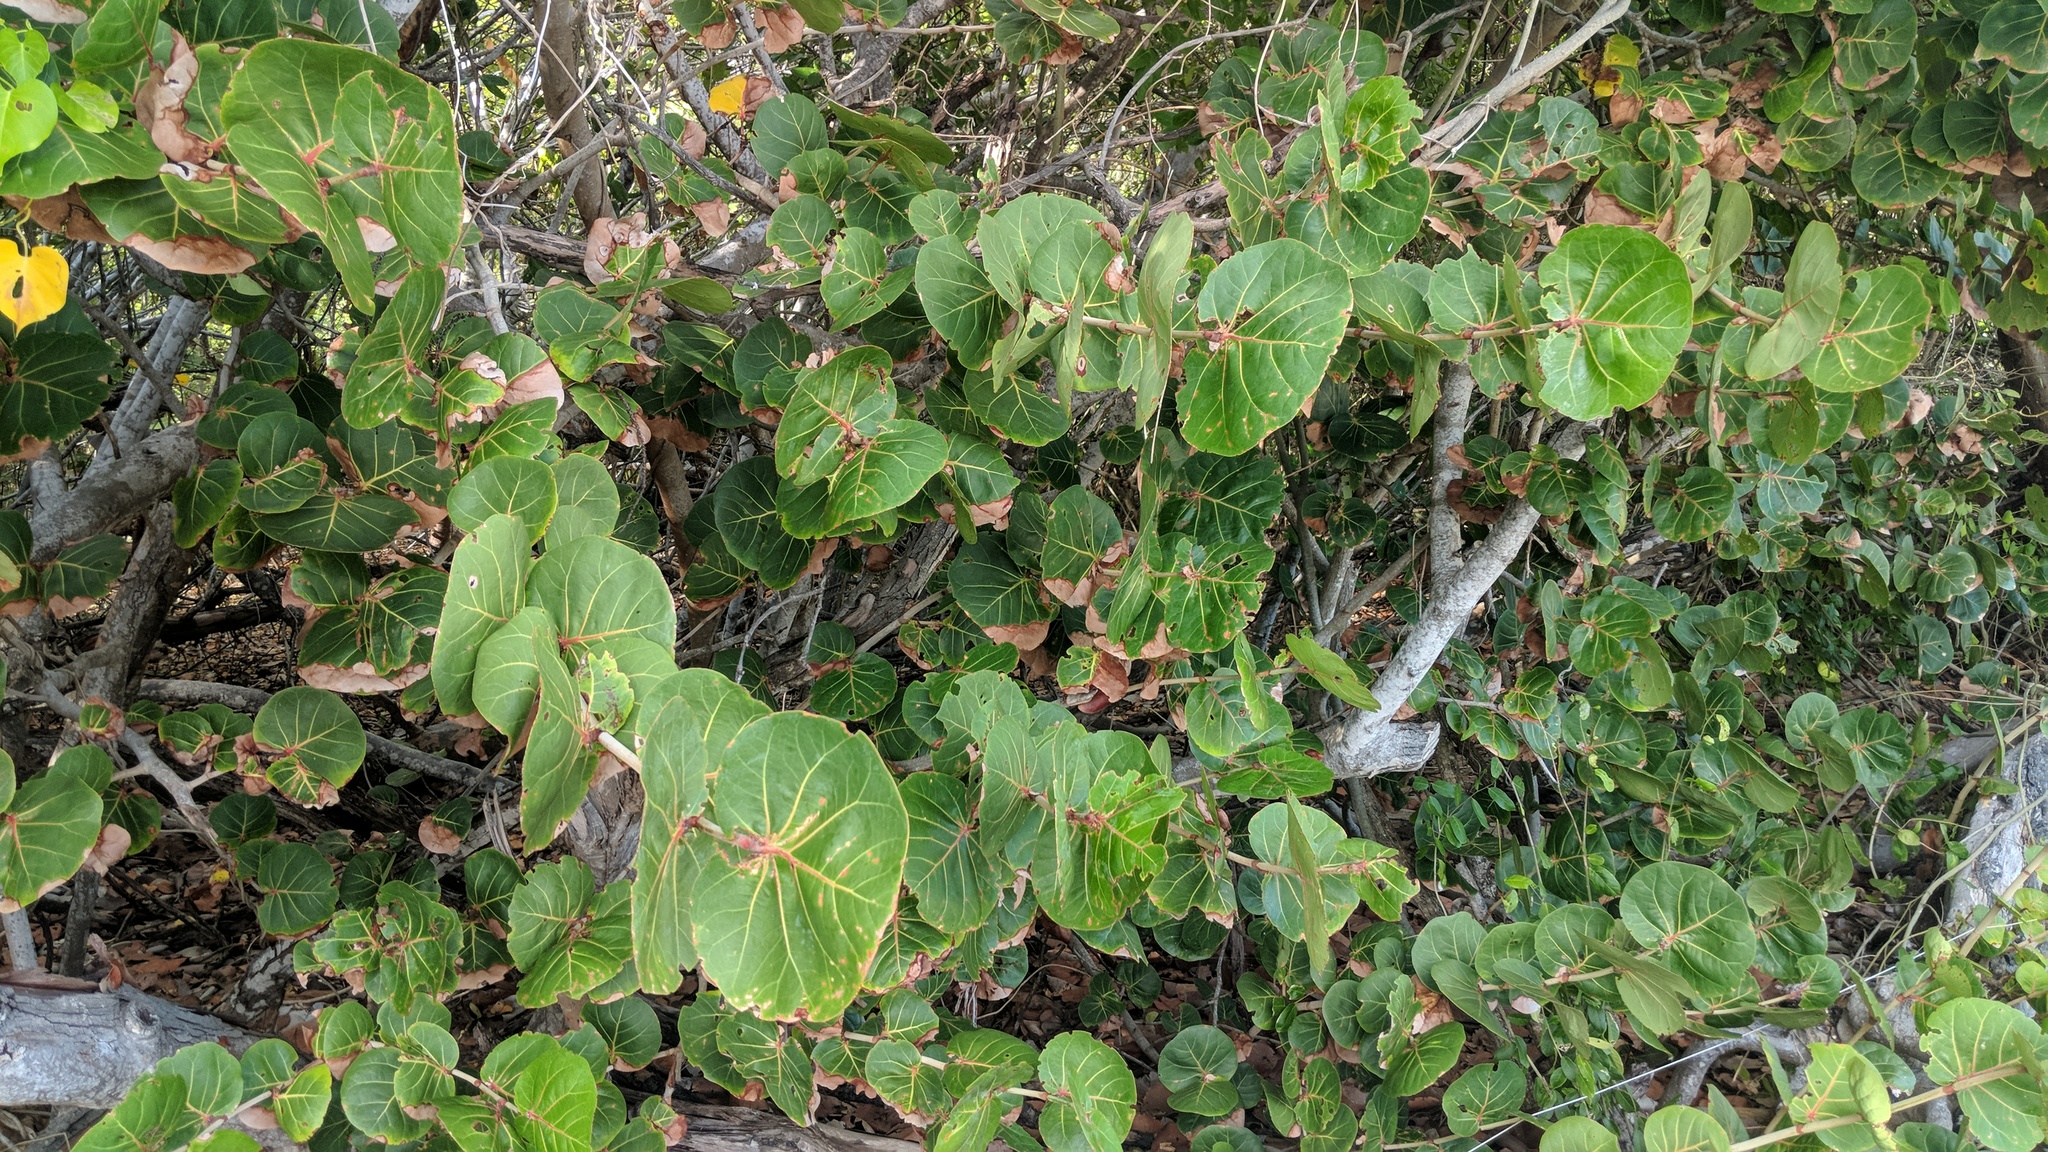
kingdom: Plantae
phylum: Tracheophyta
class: Magnoliopsida
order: Caryophyllales
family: Polygonaceae
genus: Coccoloba
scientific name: Coccoloba uvifera
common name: Seagrape
